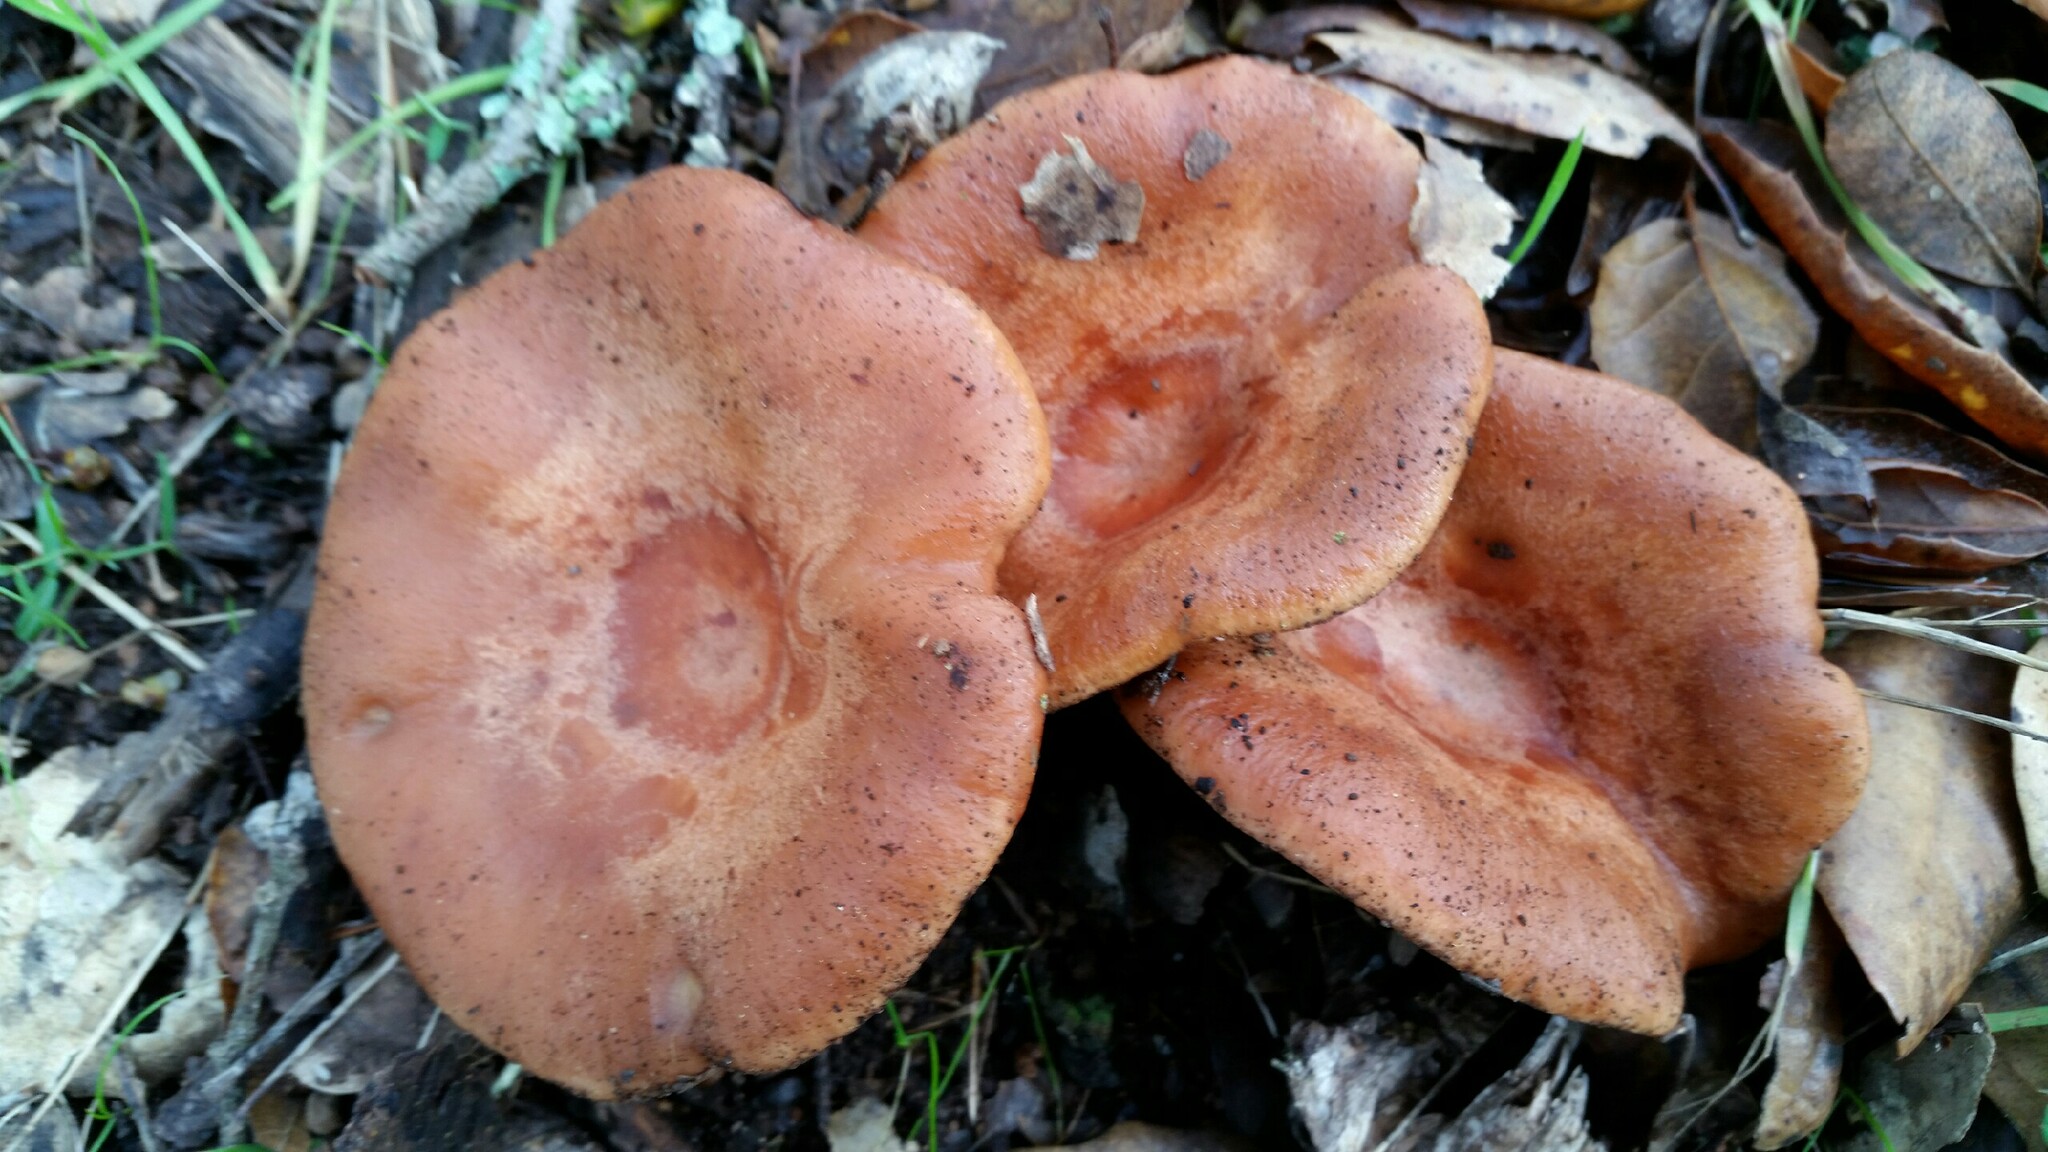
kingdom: Fungi
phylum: Basidiomycota
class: Agaricomycetes
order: Russulales
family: Russulaceae
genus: Lactarius
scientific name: Lactarius xanthogalactus
